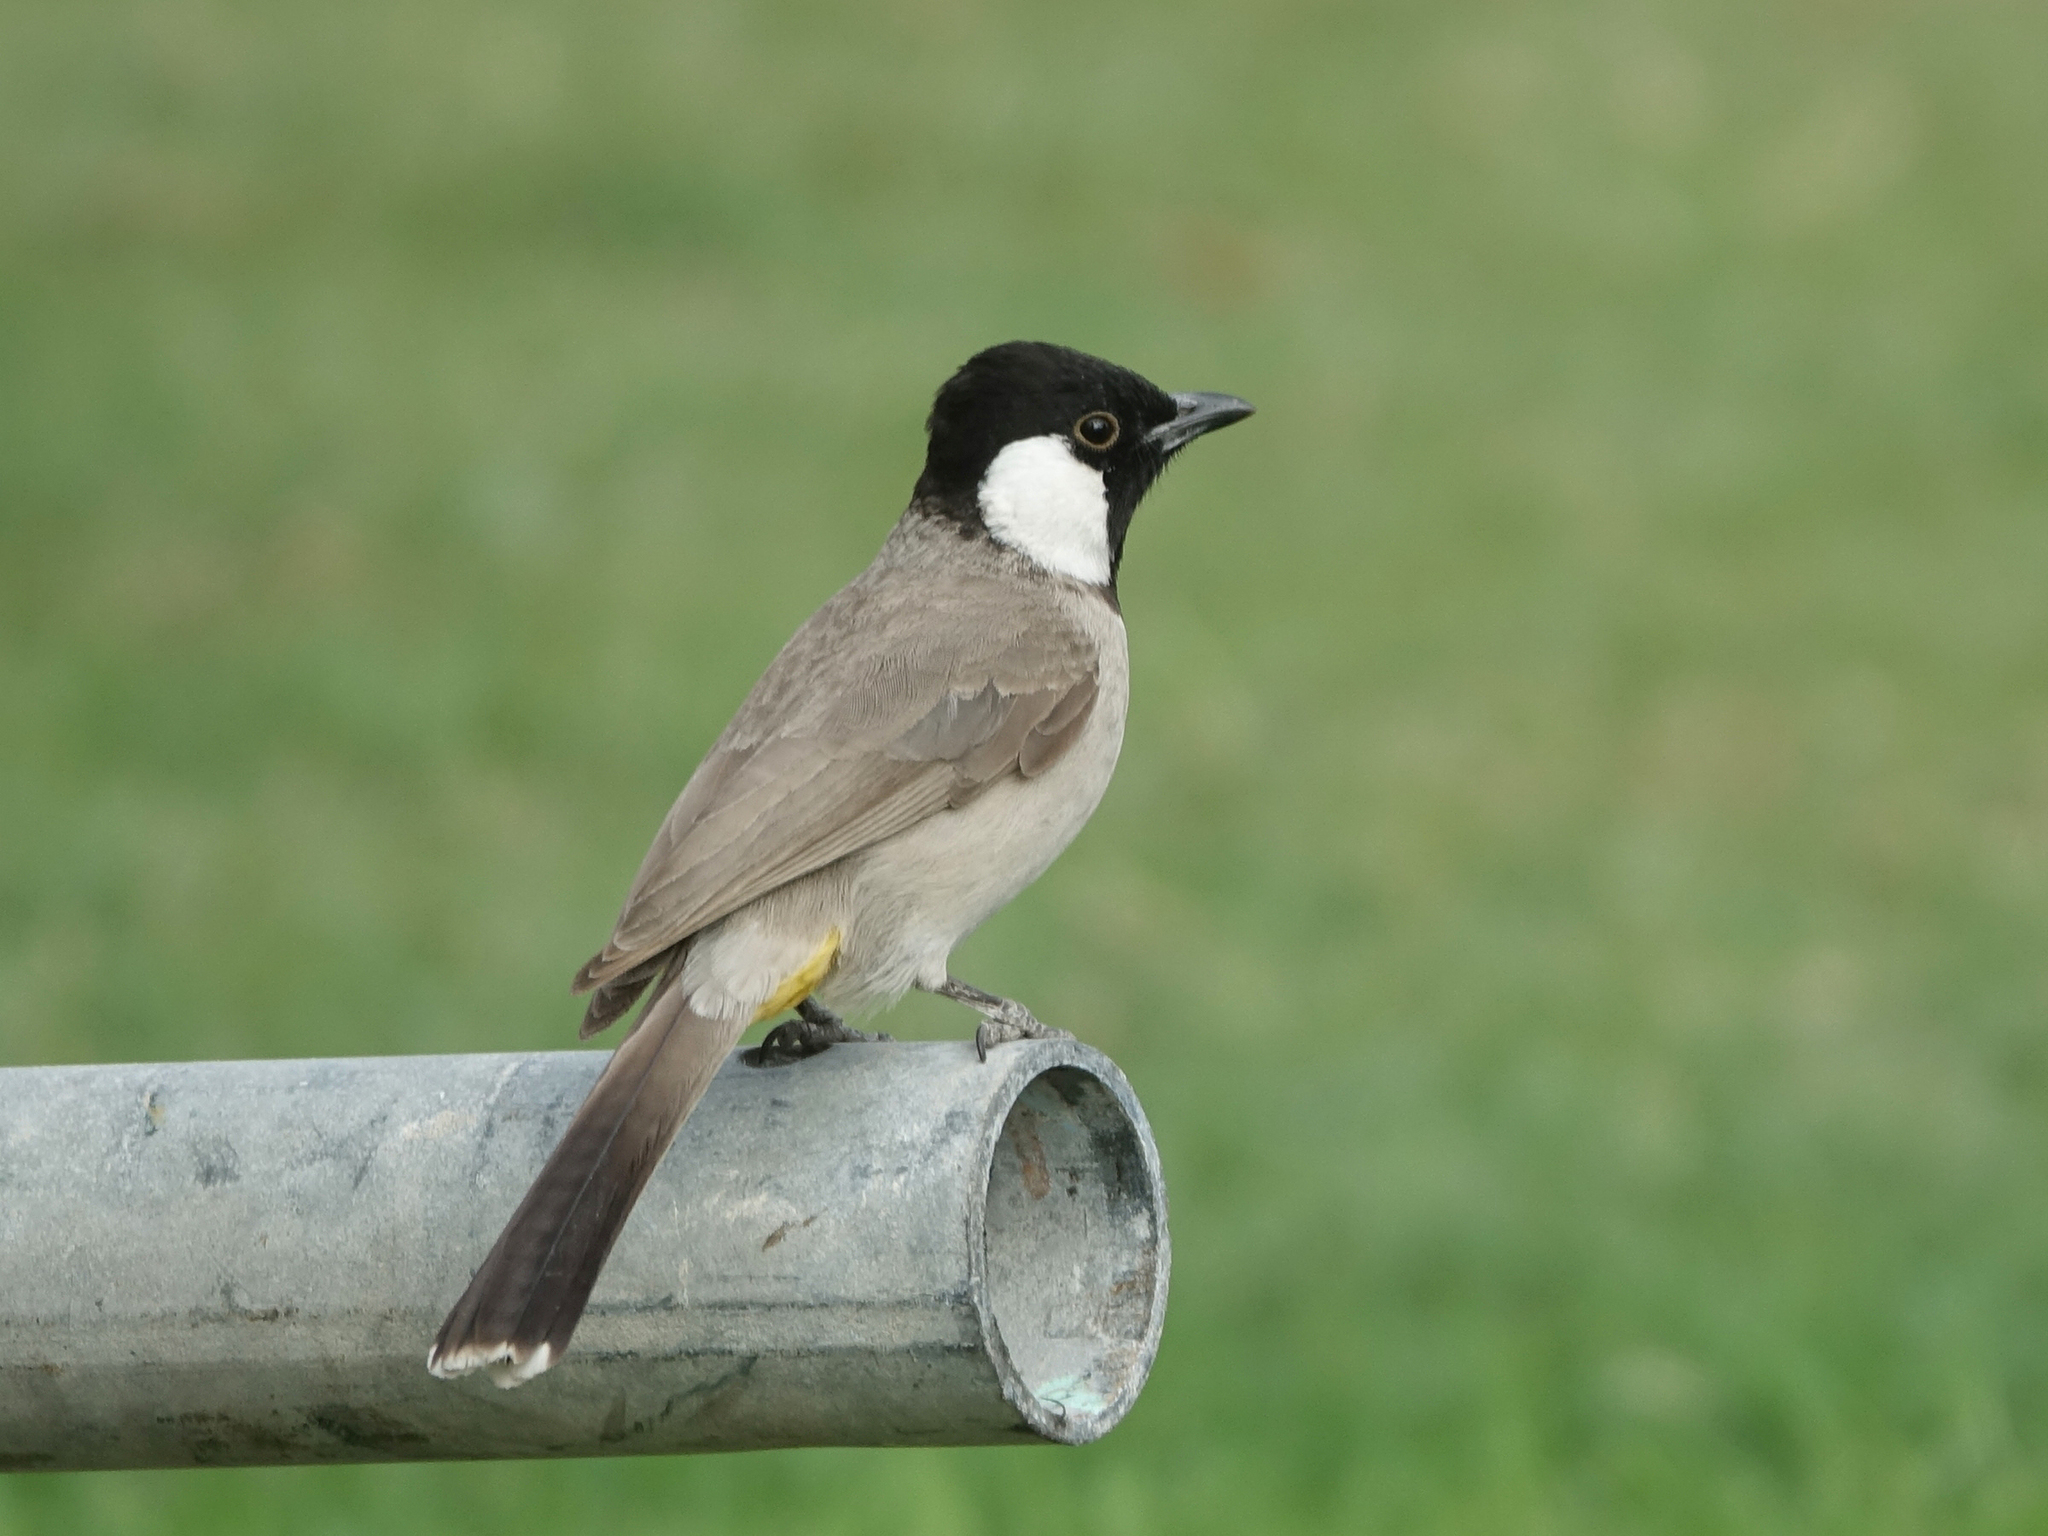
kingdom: Animalia
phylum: Chordata
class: Aves
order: Passeriformes
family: Pycnonotidae
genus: Pycnonotus
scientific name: Pycnonotus leucotis
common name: White-eared bulbul
